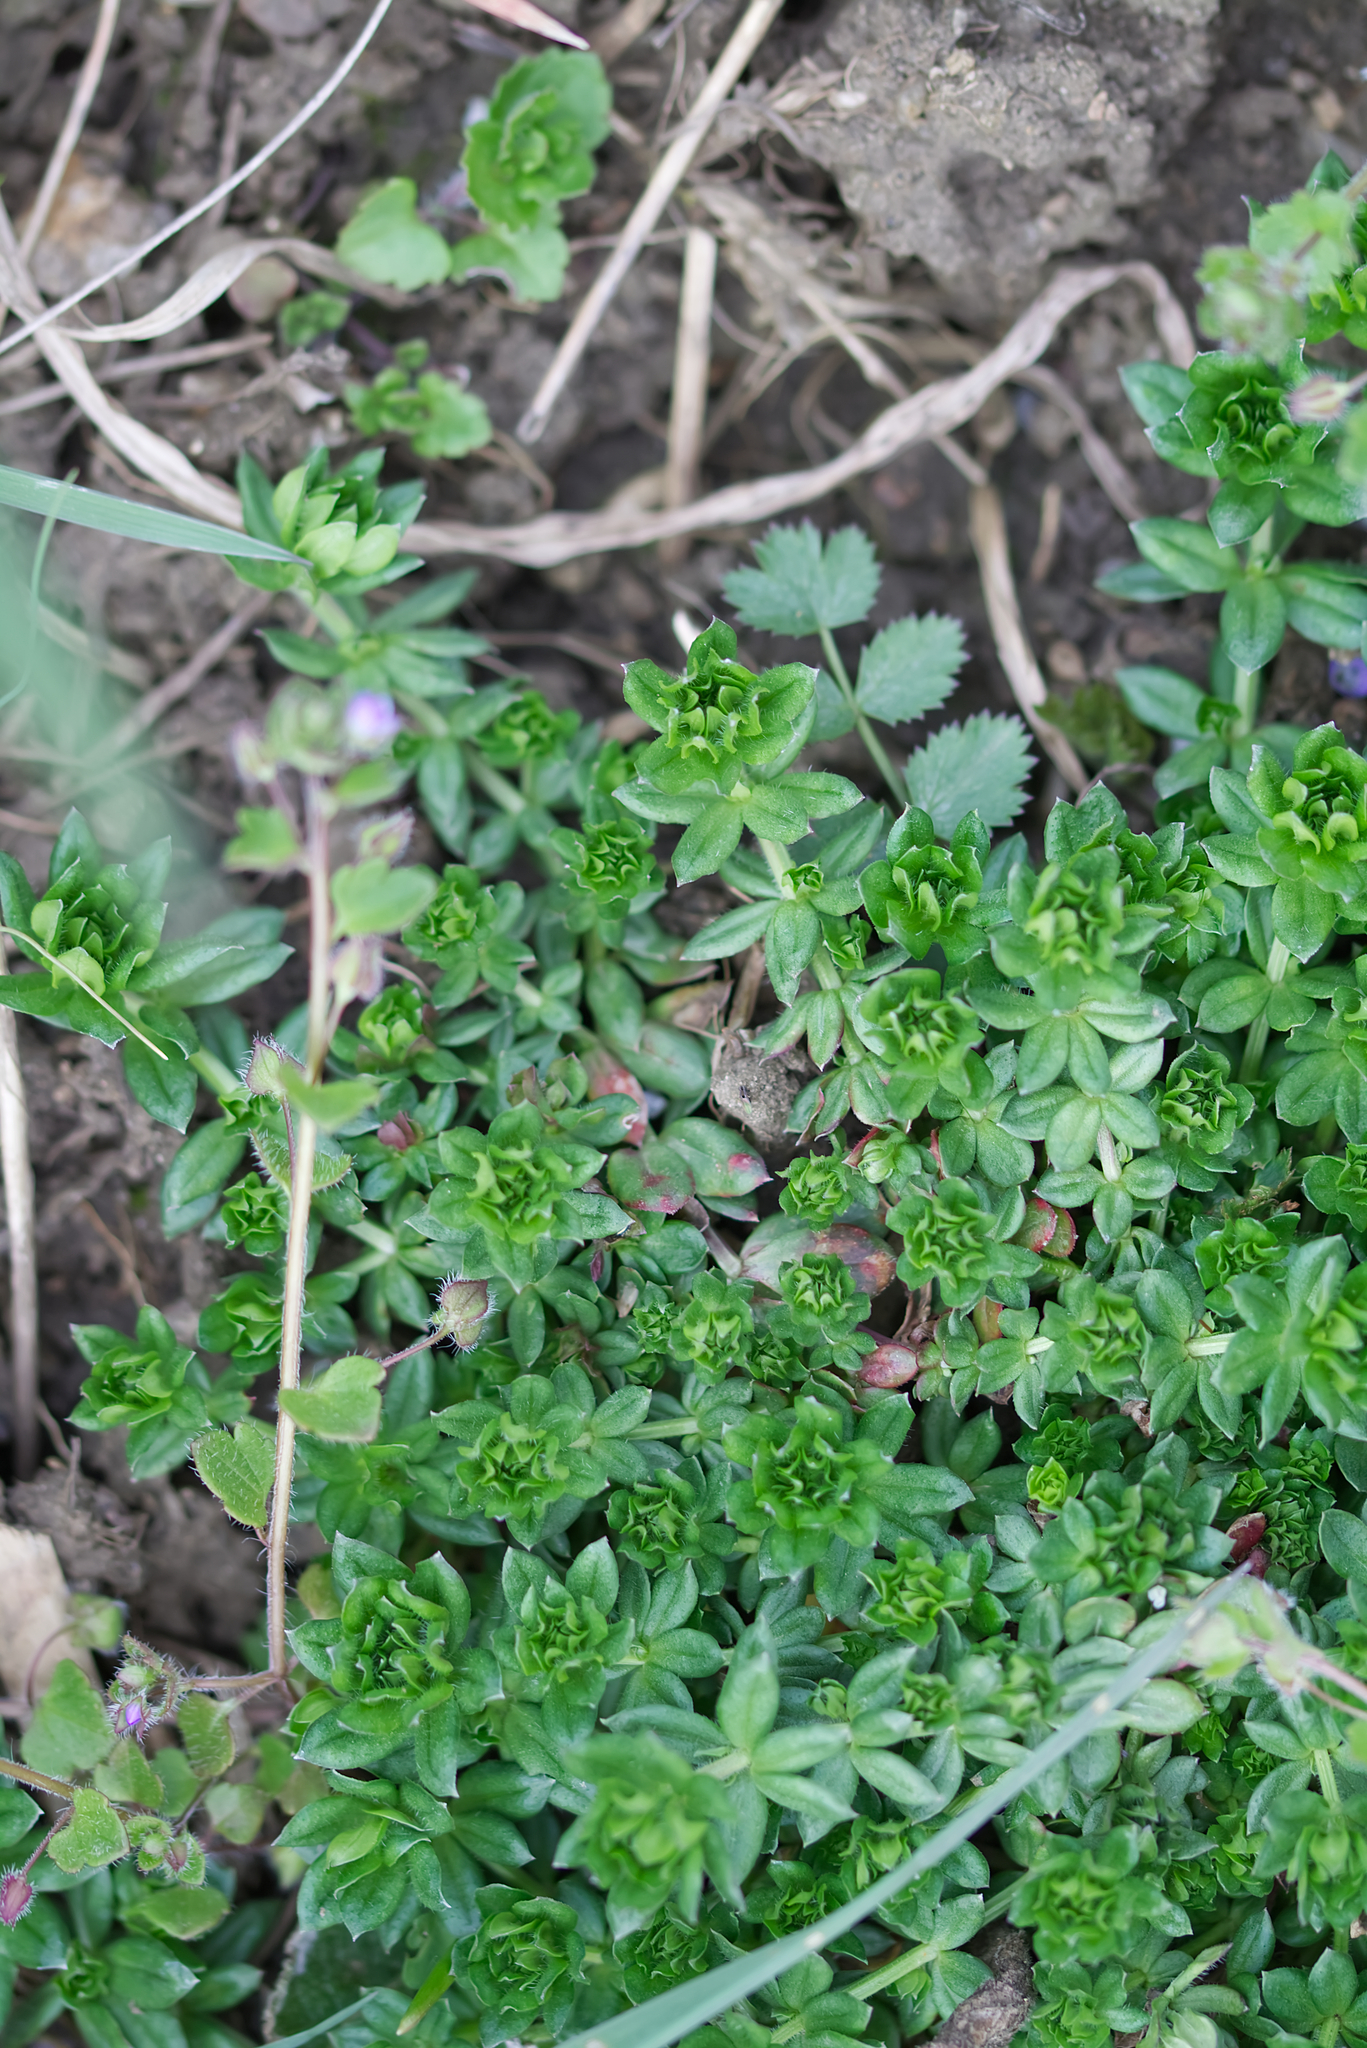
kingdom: Plantae
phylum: Tracheophyta
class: Magnoliopsida
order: Gentianales
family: Rubiaceae
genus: Sherardia
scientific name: Sherardia arvensis
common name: Field madder
